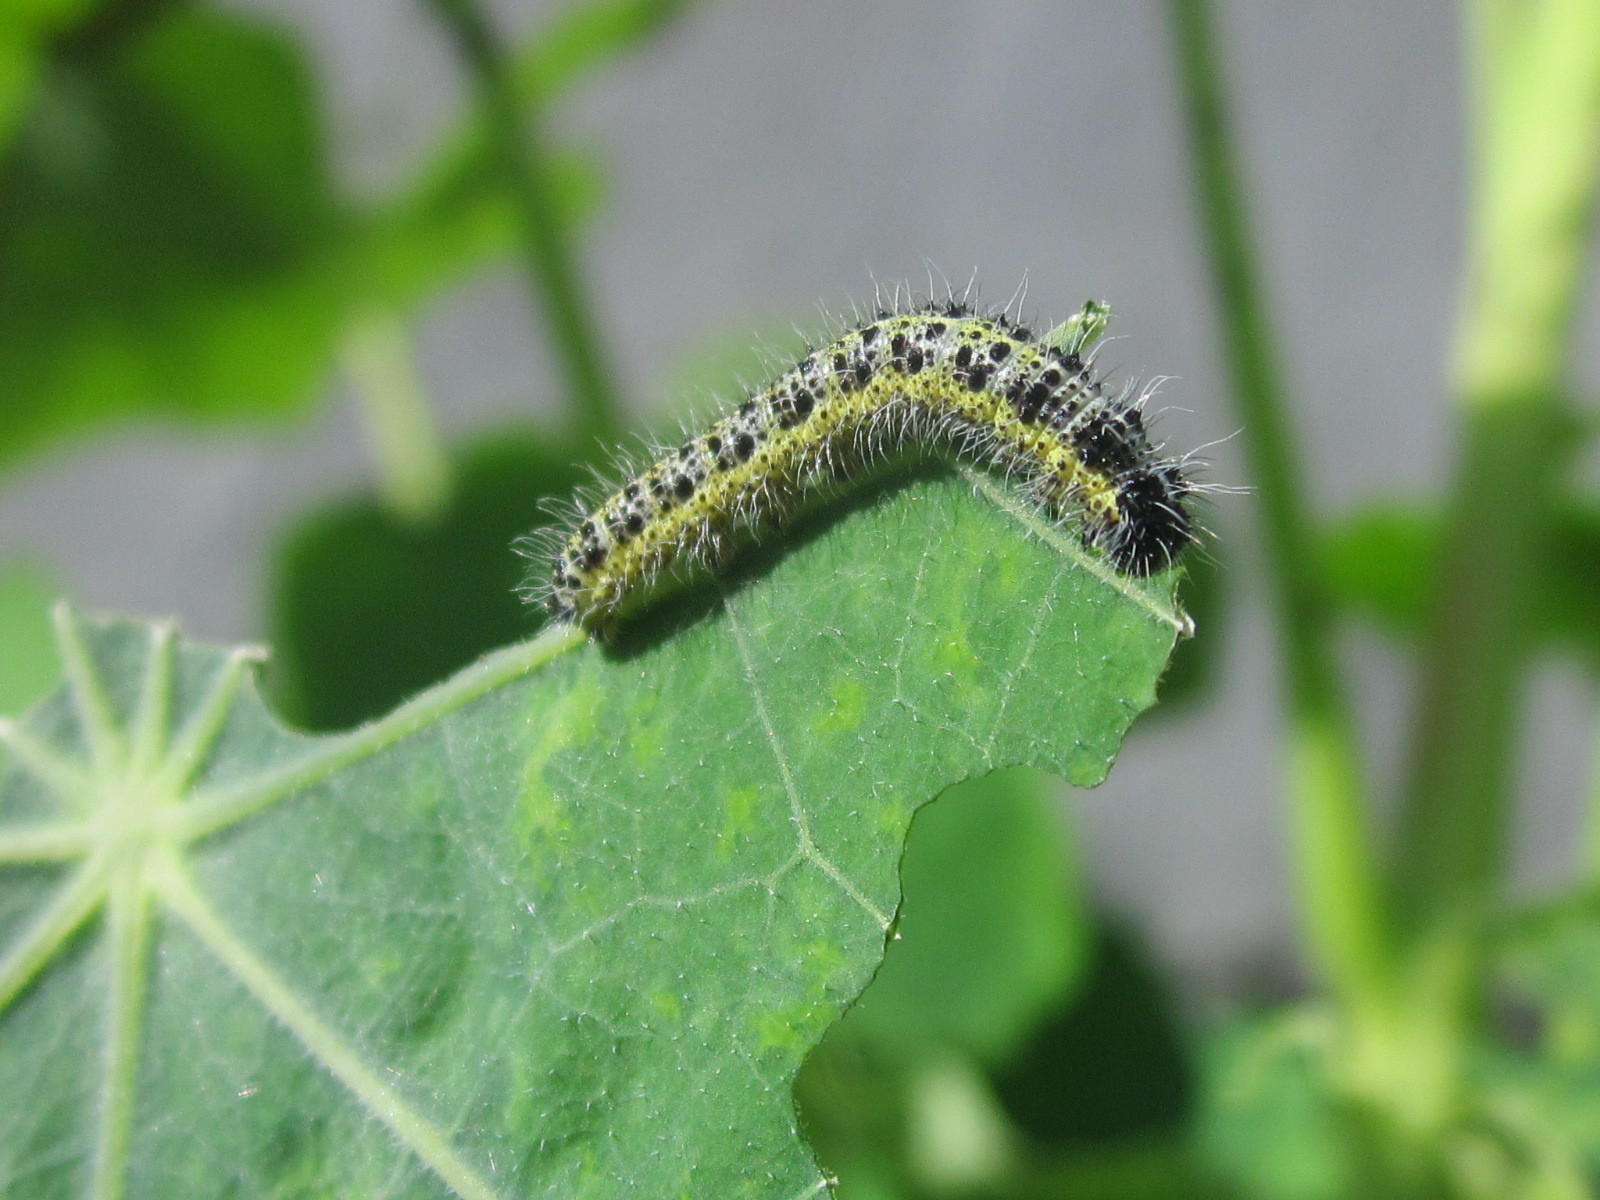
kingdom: Animalia
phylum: Arthropoda
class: Insecta
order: Lepidoptera
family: Pieridae
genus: Pieris
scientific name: Pieris brassicae
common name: Large white
